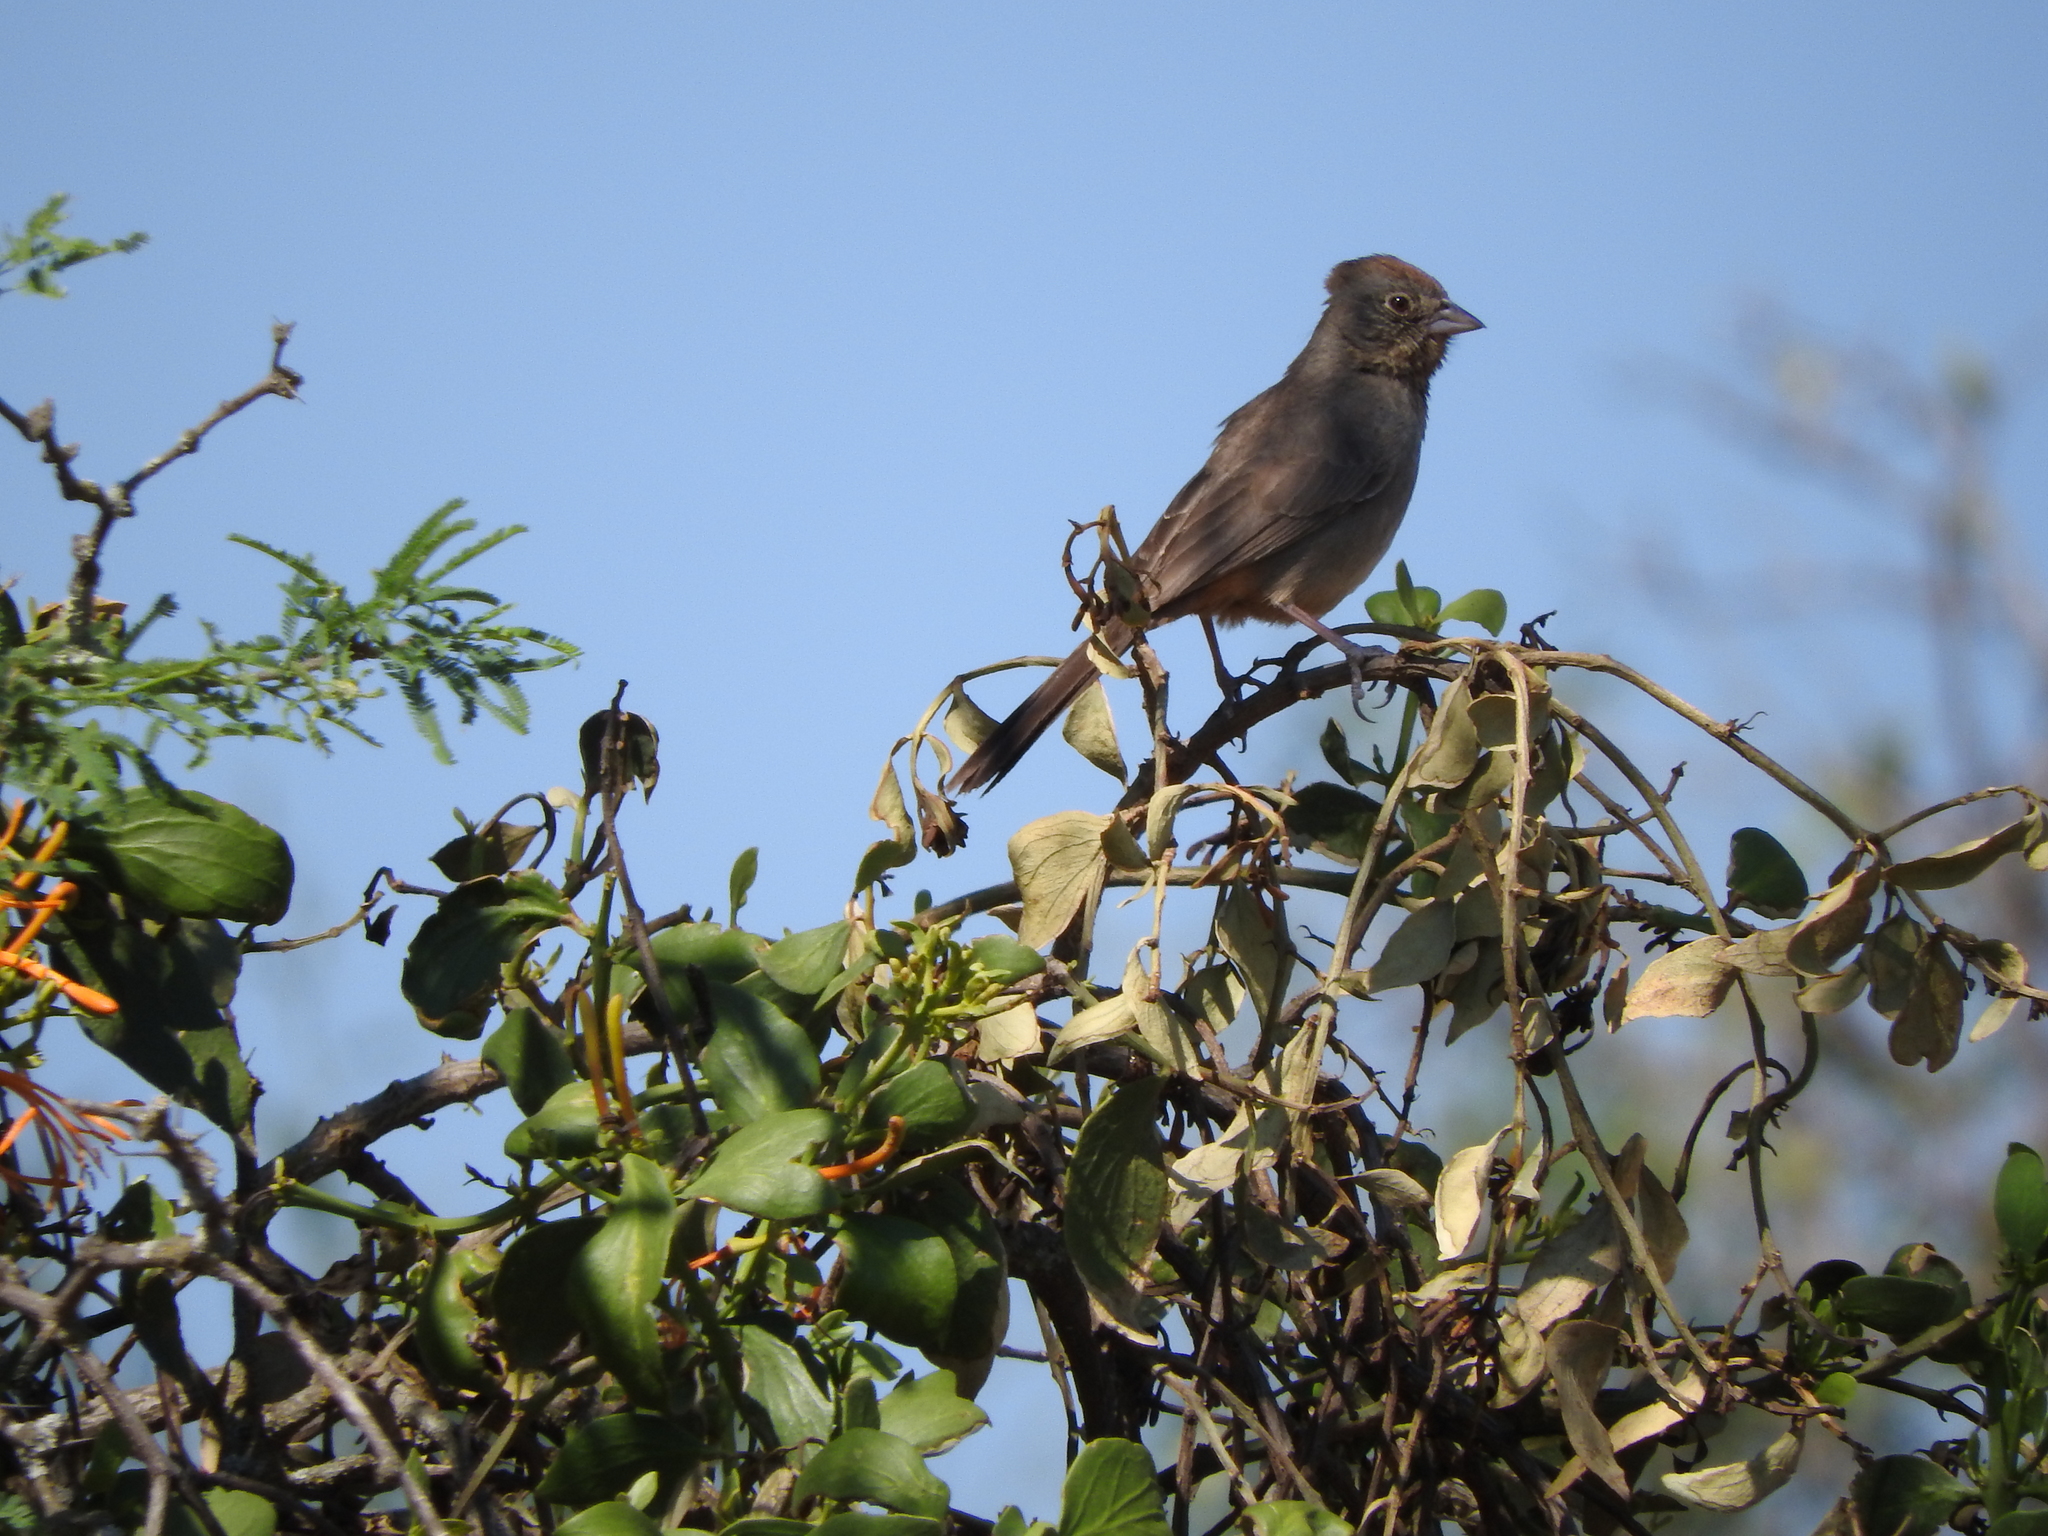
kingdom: Animalia
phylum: Chordata
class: Aves
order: Passeriformes
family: Passerellidae
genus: Melozone
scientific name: Melozone fusca
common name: Canyon towhee
